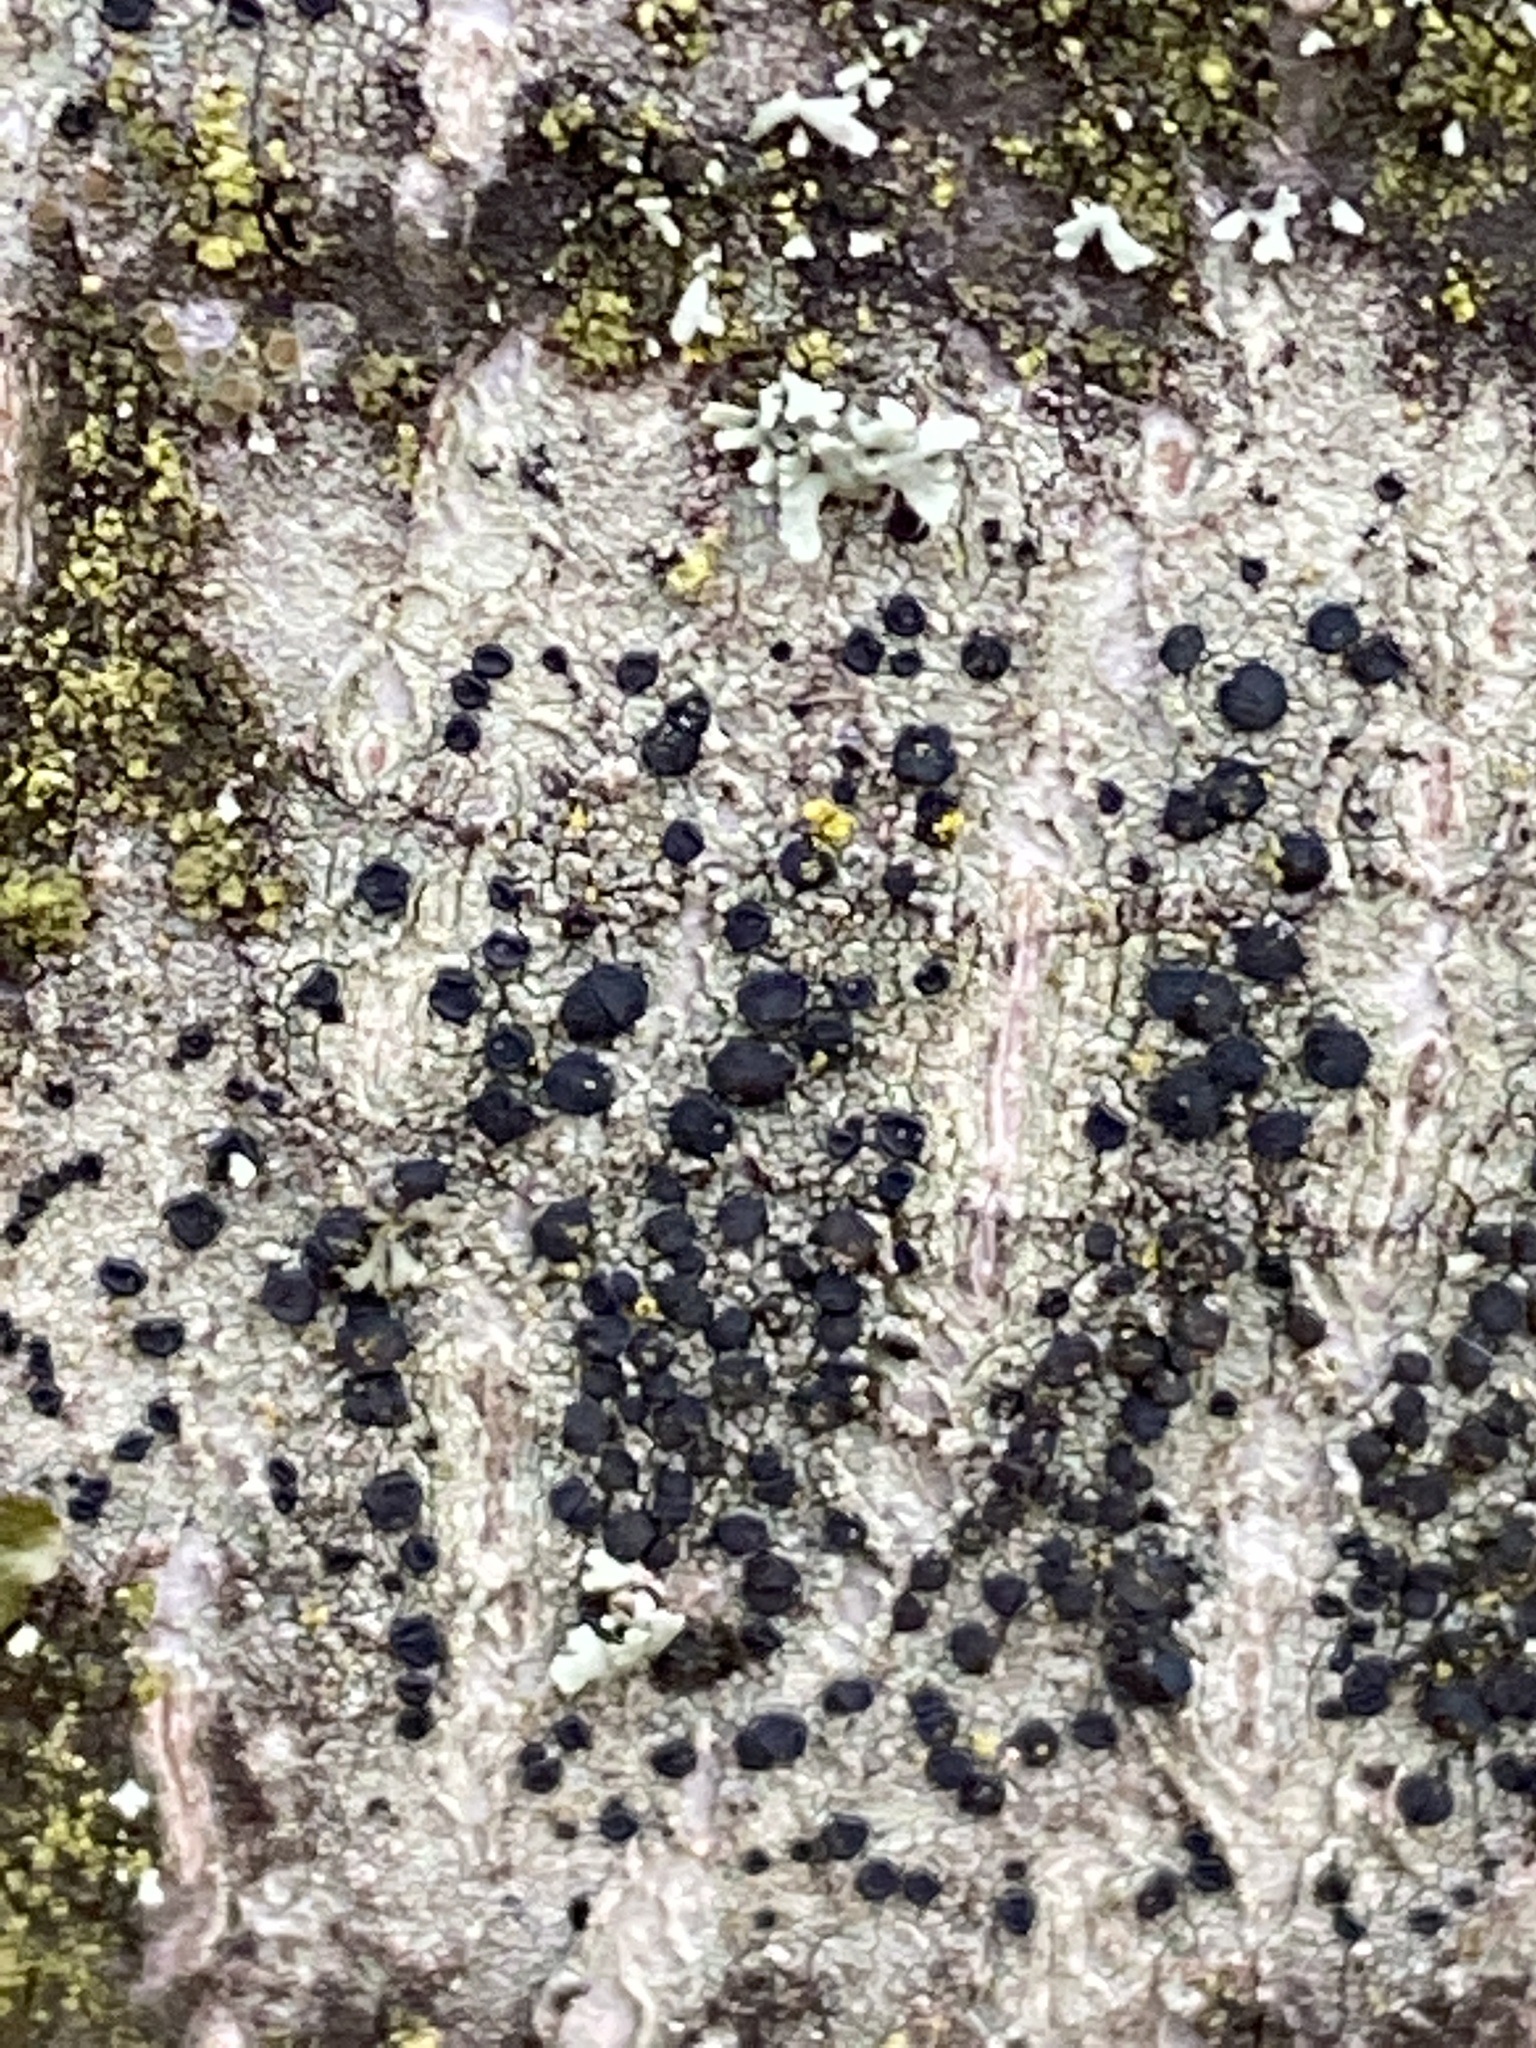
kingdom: Fungi
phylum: Ascomycota
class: Lecanoromycetes
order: Lecanorales
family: Lecanoraceae
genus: Lecidella
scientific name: Lecidella elaeochroma
